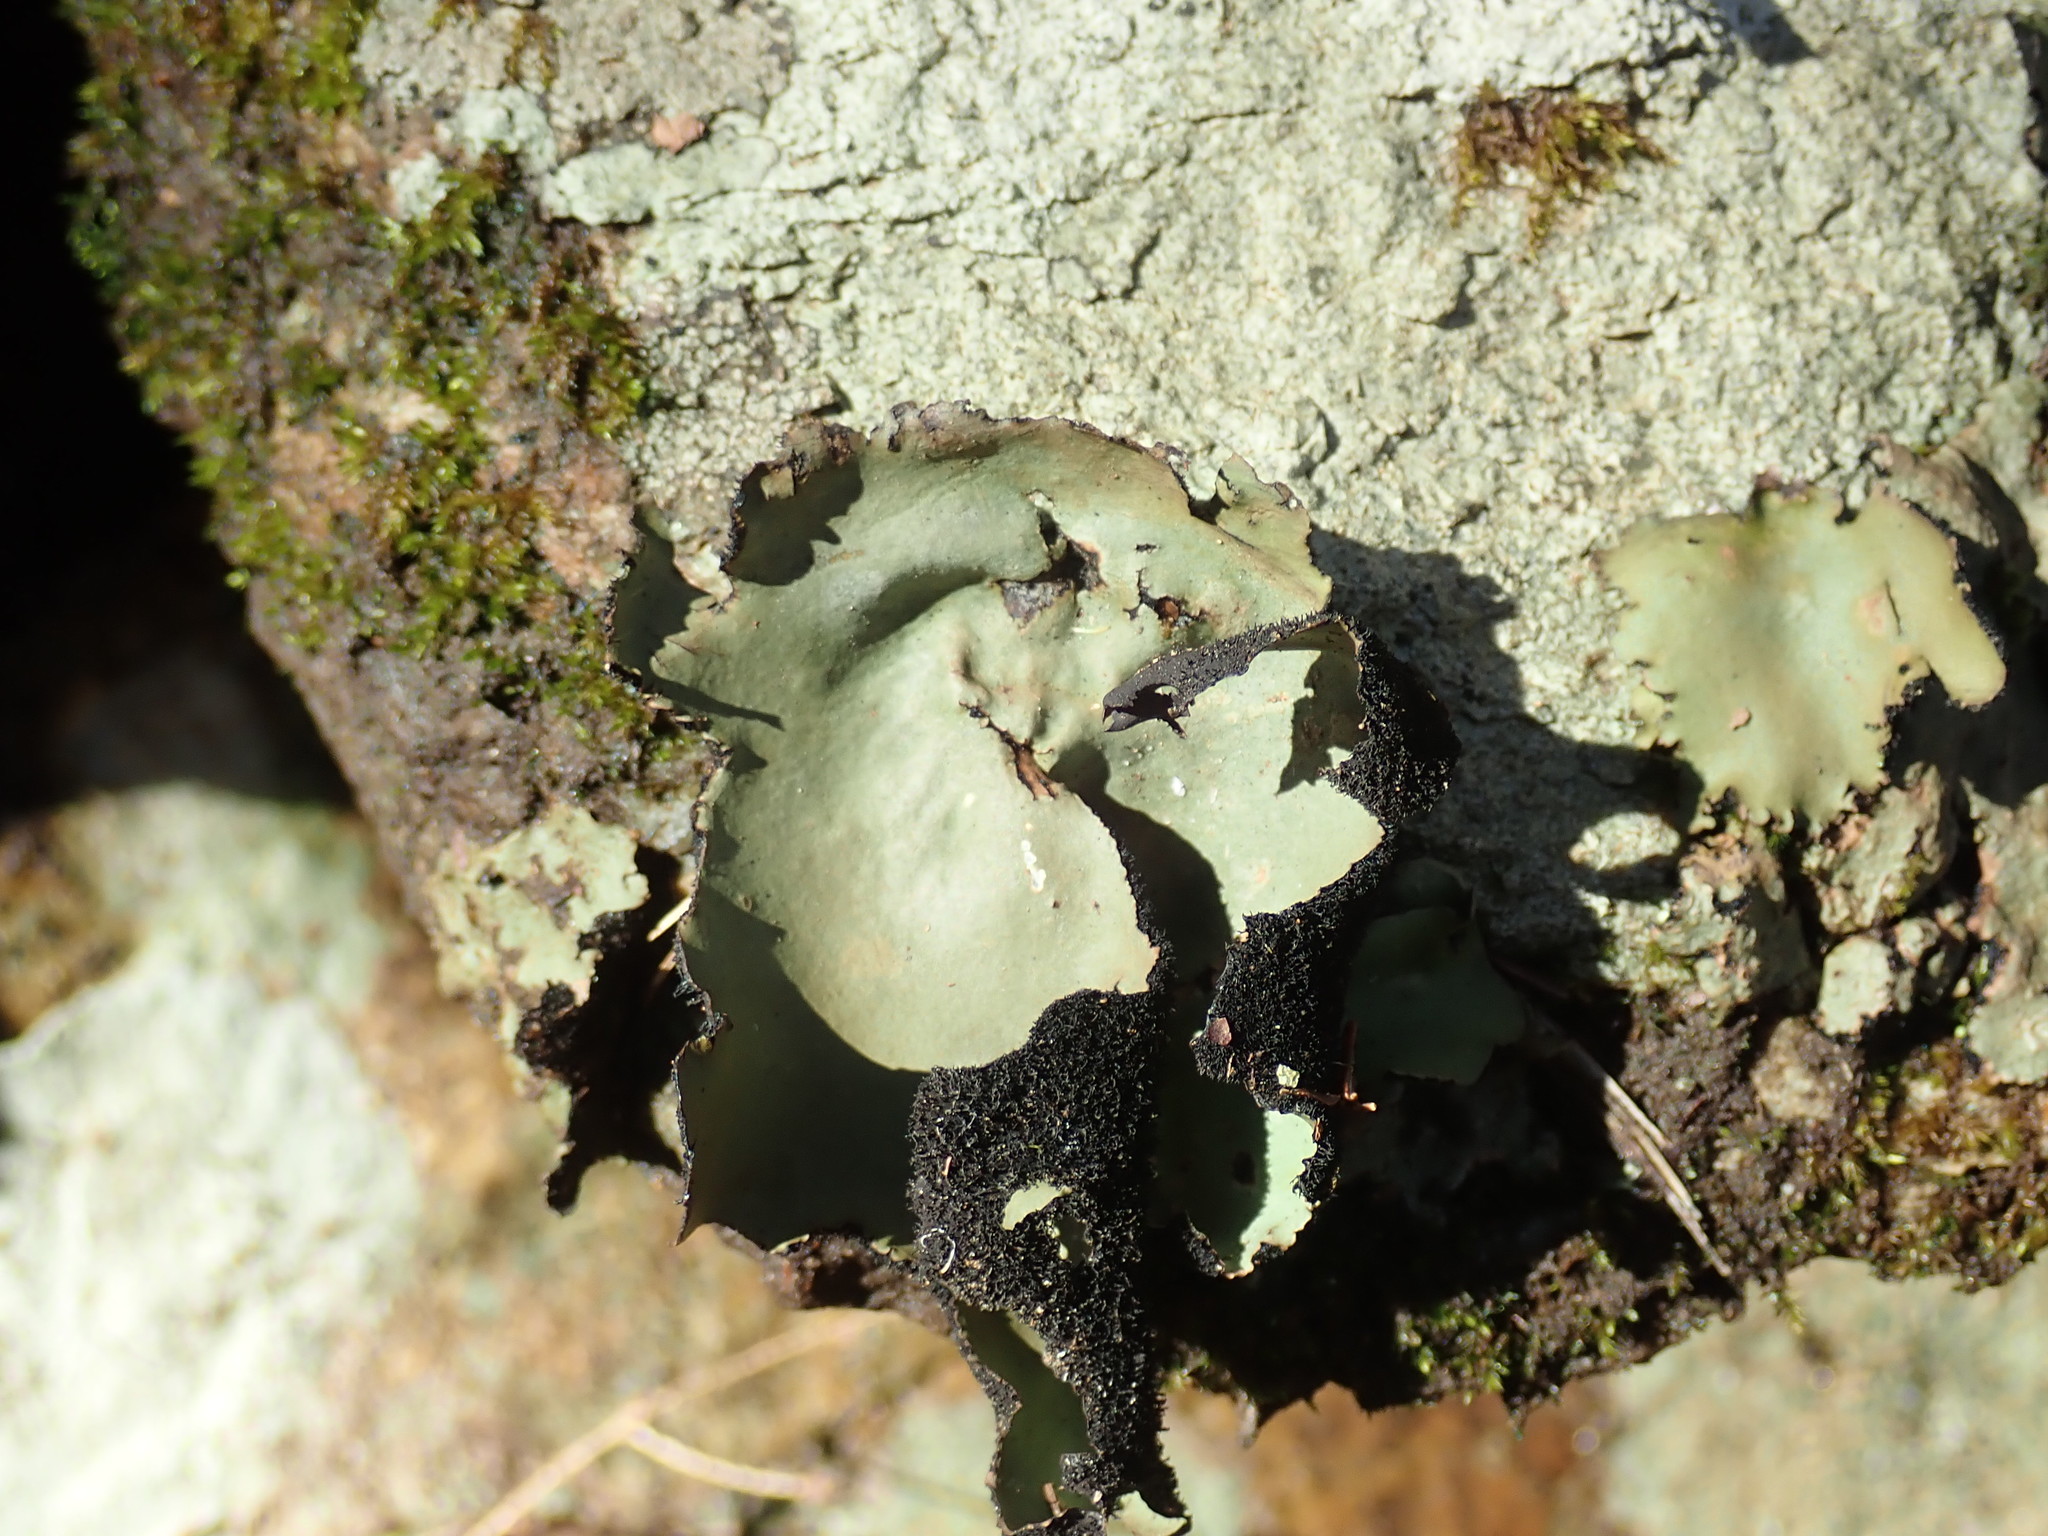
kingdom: Fungi
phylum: Ascomycota
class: Lecanoromycetes
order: Umbilicariales
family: Umbilicariaceae
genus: Umbilicaria
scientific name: Umbilicaria mammulata
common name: Smooth rock tripe
